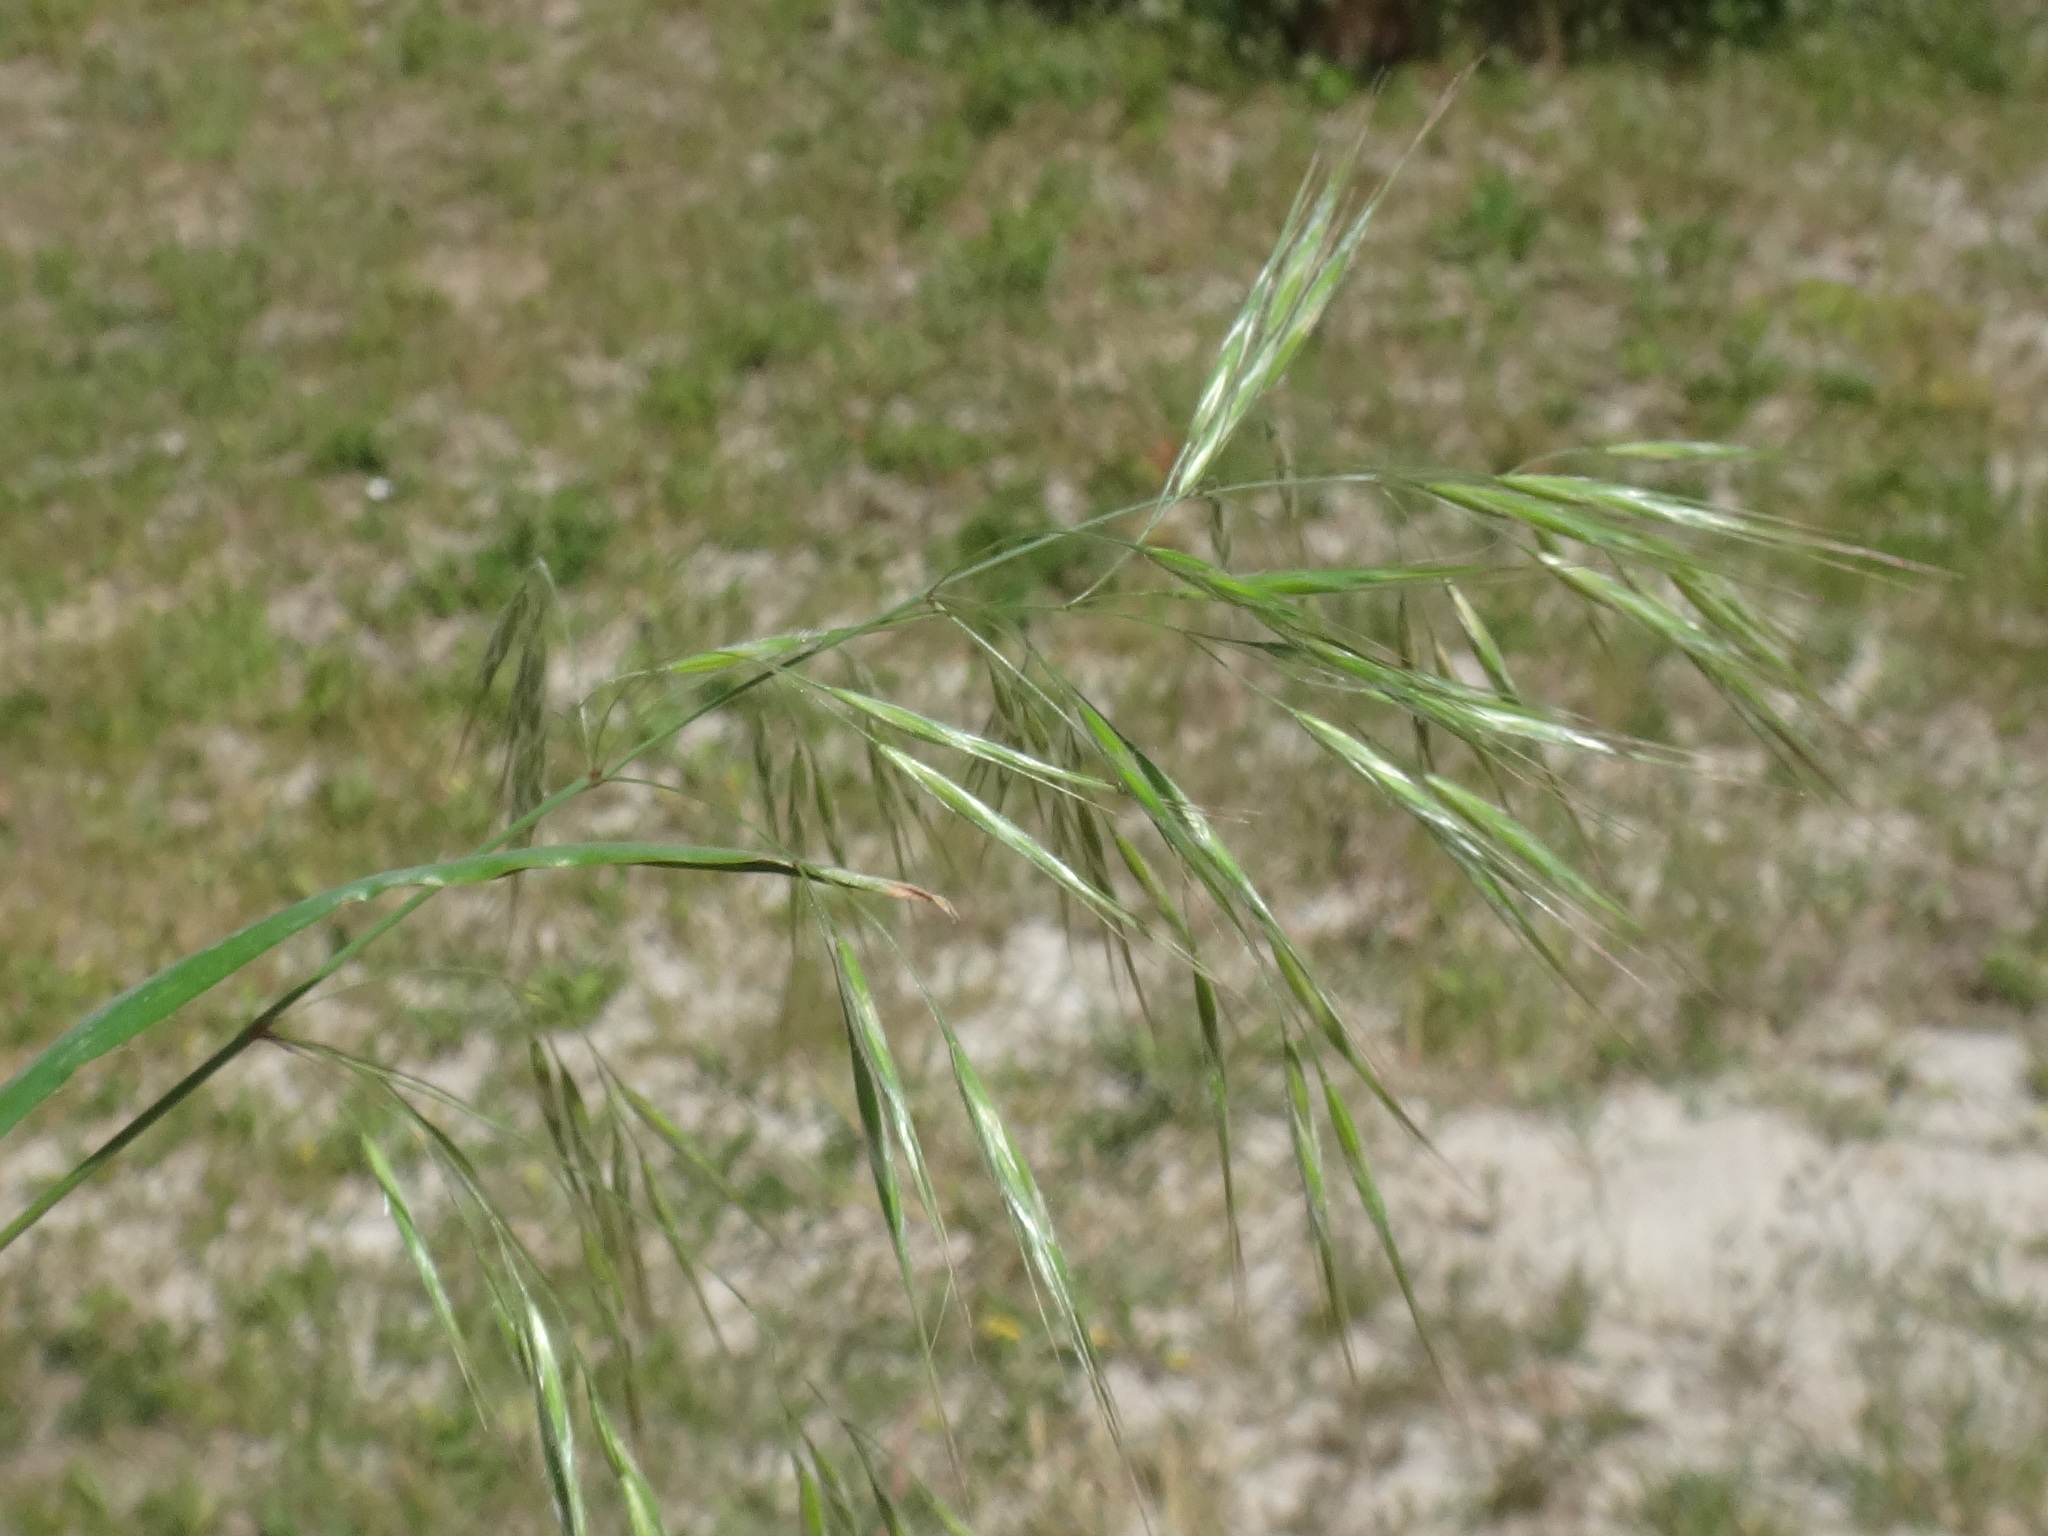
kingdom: Plantae
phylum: Tracheophyta
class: Liliopsida
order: Poales
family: Poaceae
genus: Bromus
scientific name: Bromus tectorum
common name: Cheatgrass
